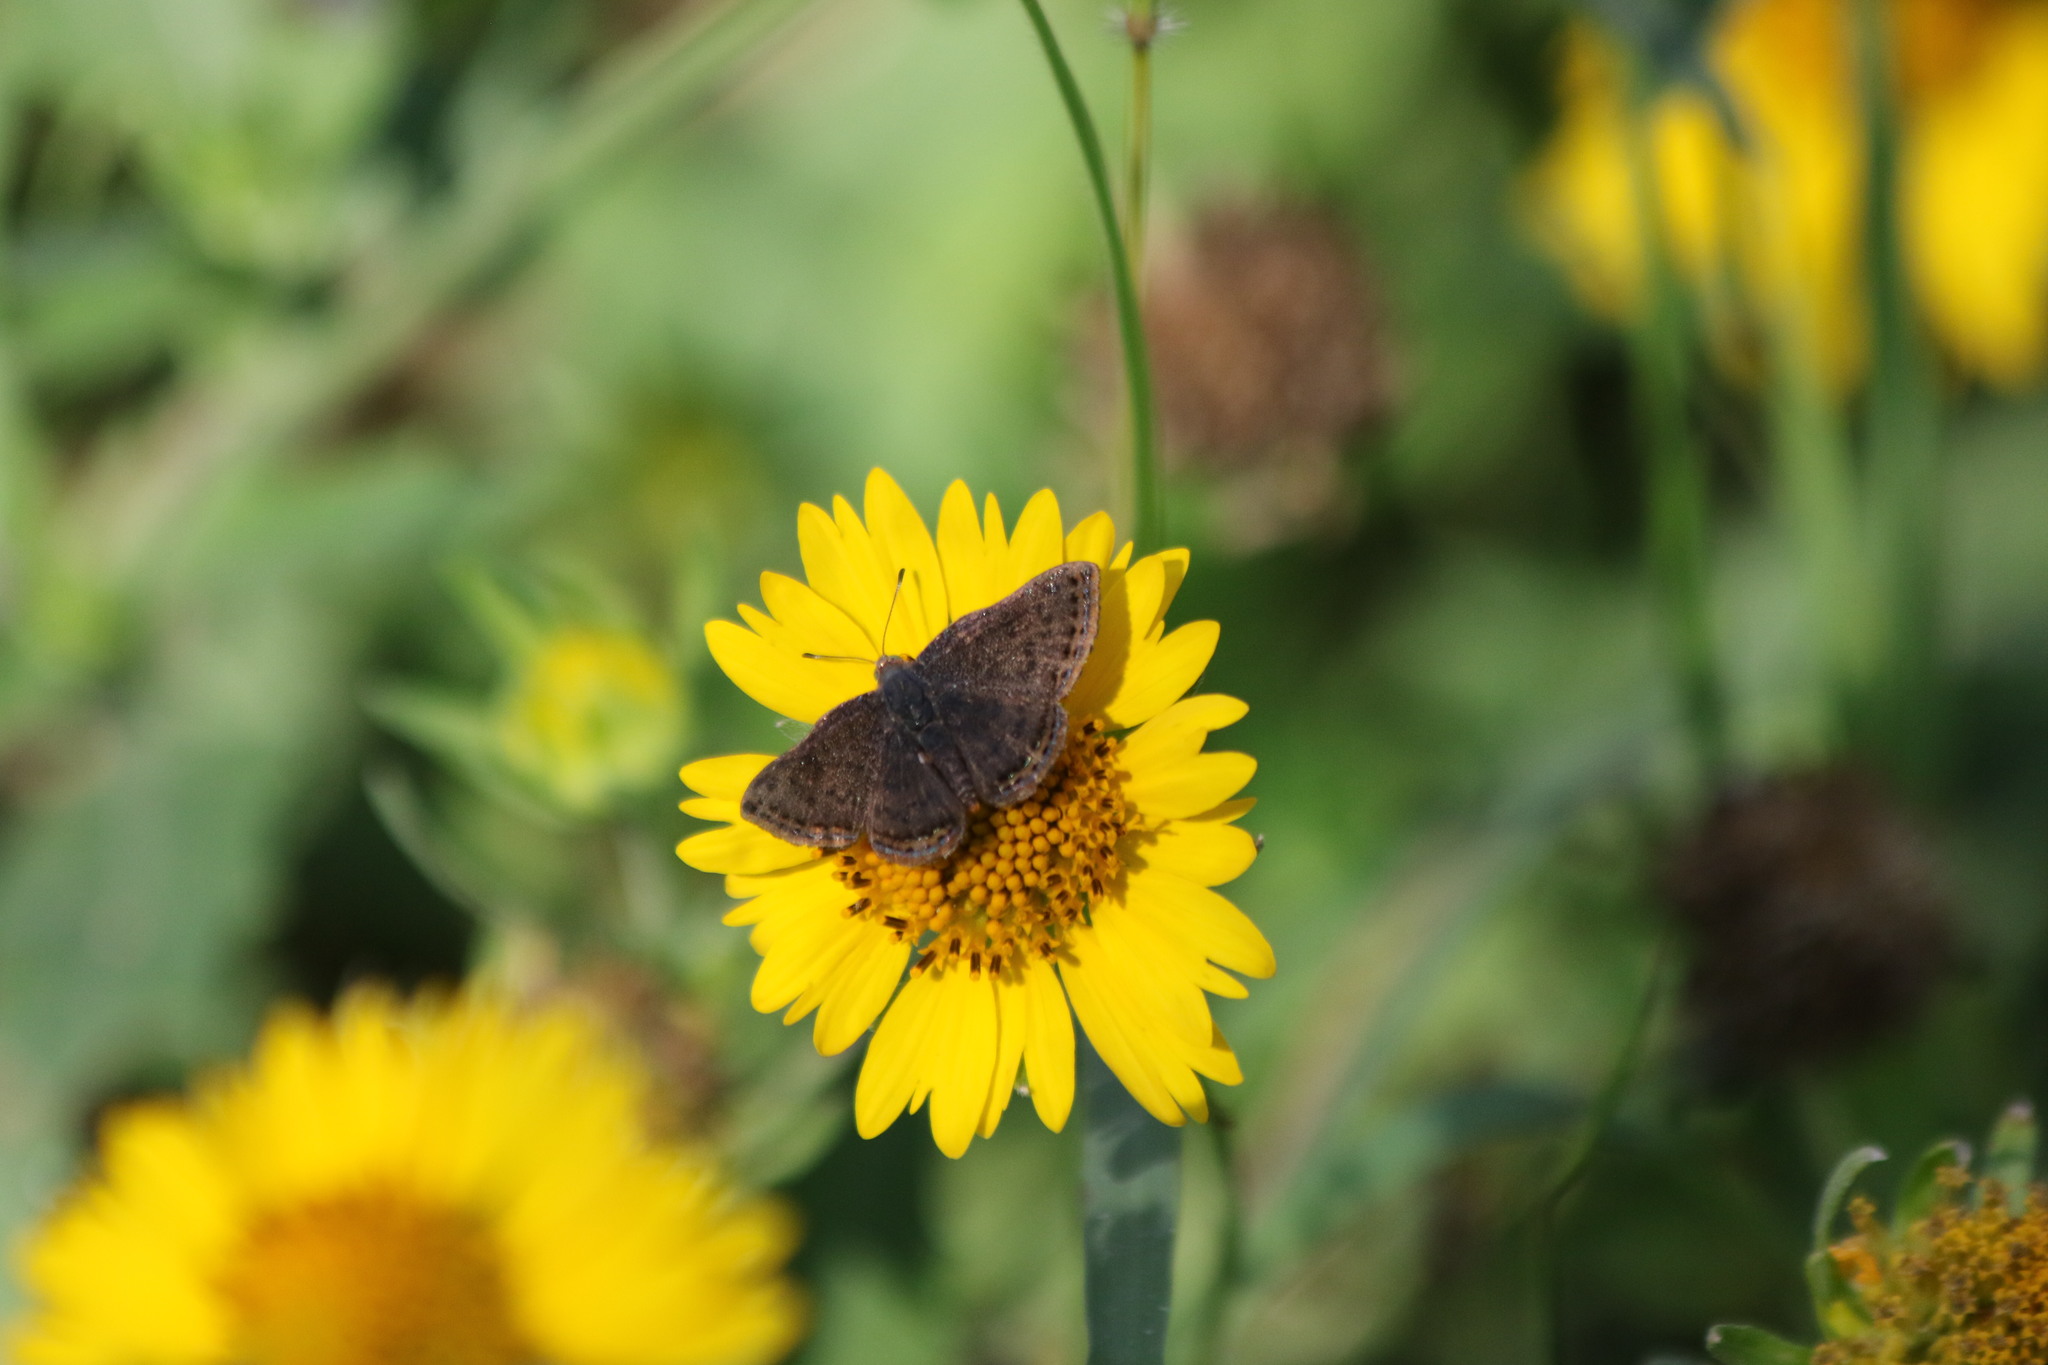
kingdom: Animalia
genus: Caria
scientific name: Caria ino
